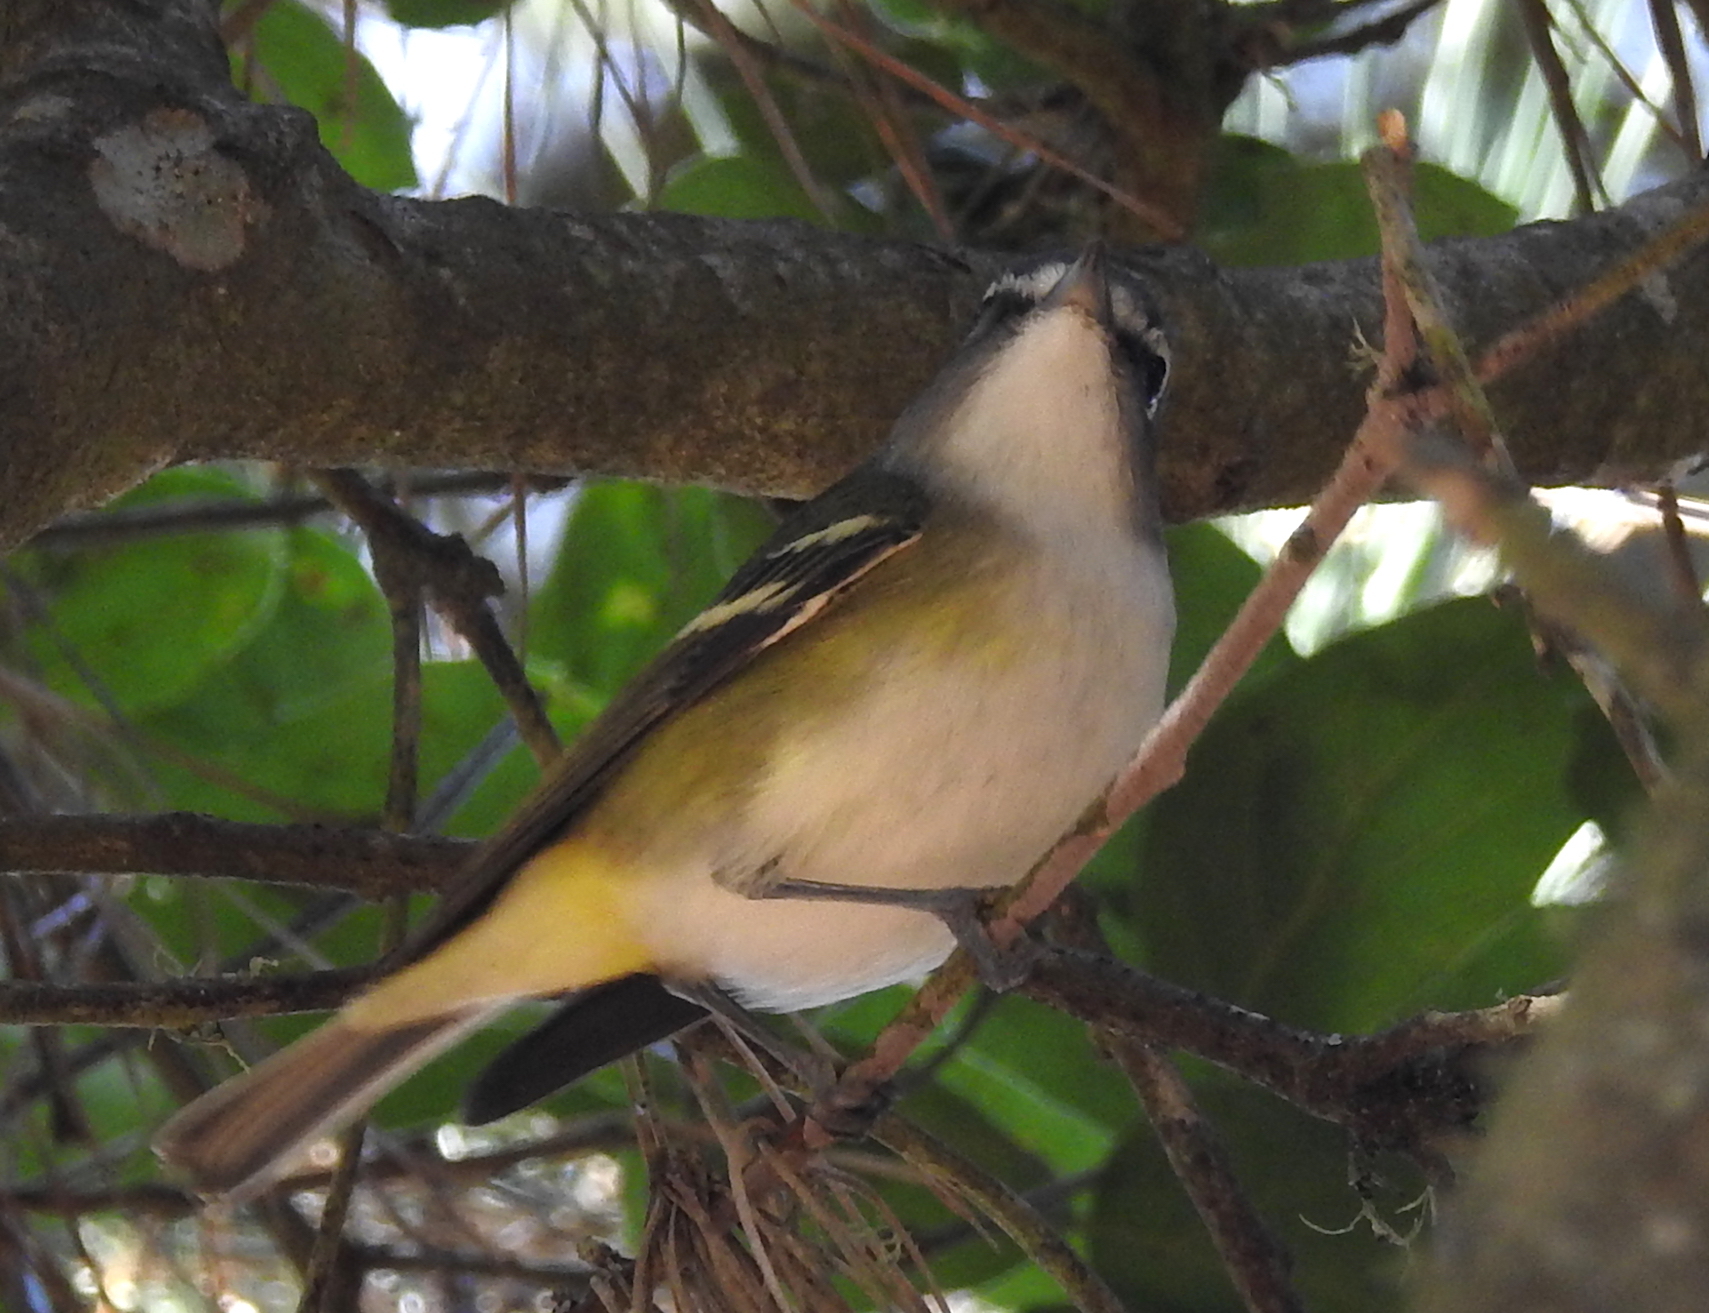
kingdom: Animalia
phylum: Chordata
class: Aves
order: Passeriformes
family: Vireonidae
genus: Vireo
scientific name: Vireo solitarius
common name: Blue-headed vireo
